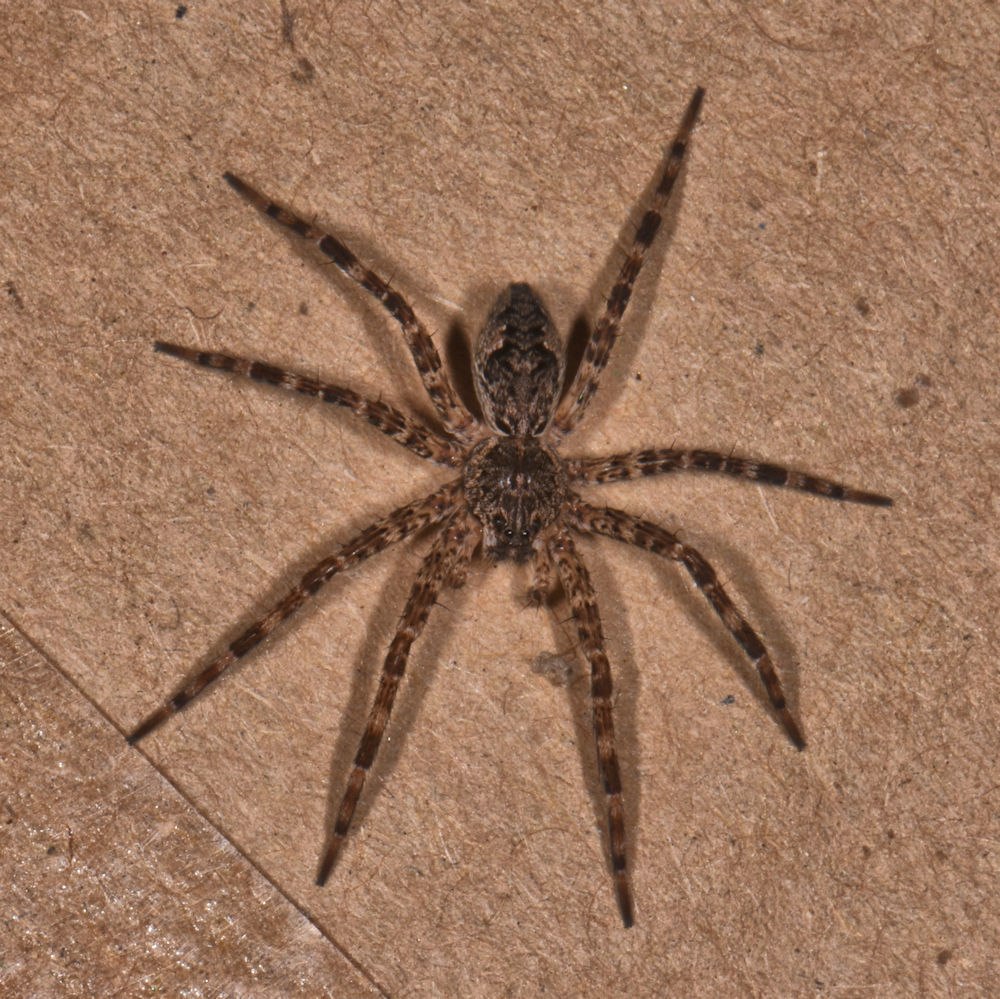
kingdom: Animalia
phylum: Arthropoda
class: Arachnida
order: Araneae
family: Pisauridae
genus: Dolomedes
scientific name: Dolomedes tenebrosus
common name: Dark fishing spider
